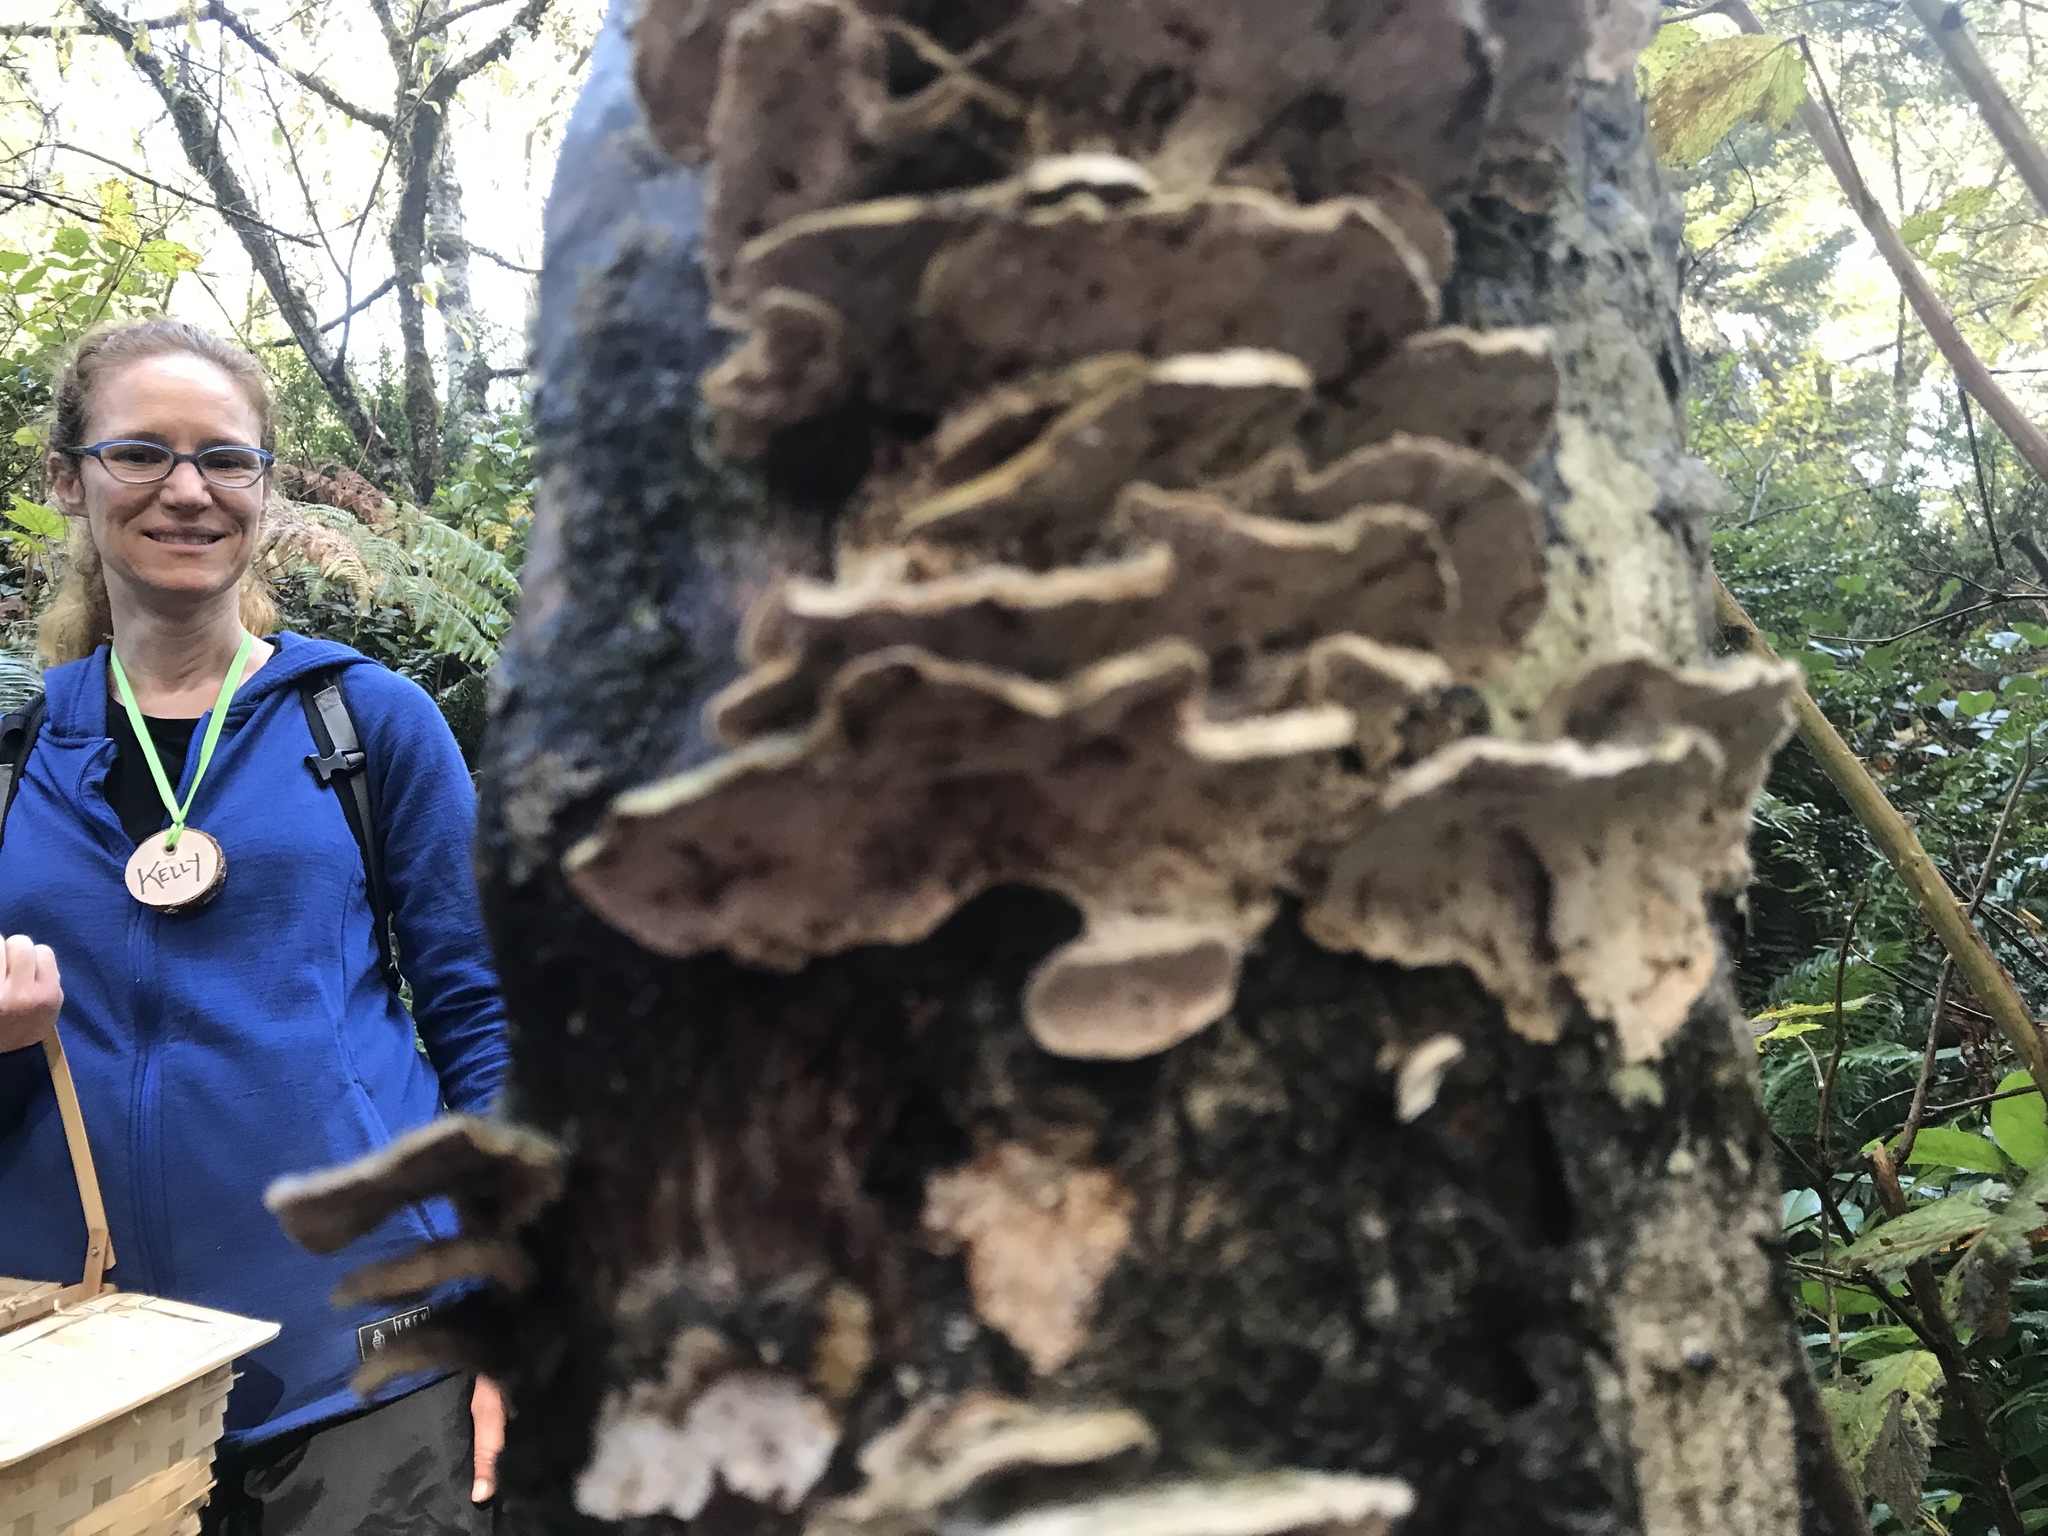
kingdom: Fungi
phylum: Basidiomycota
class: Agaricomycetes
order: Polyporales
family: Polyporaceae
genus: Trametes
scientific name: Trametes versicolor
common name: Turkeytail
